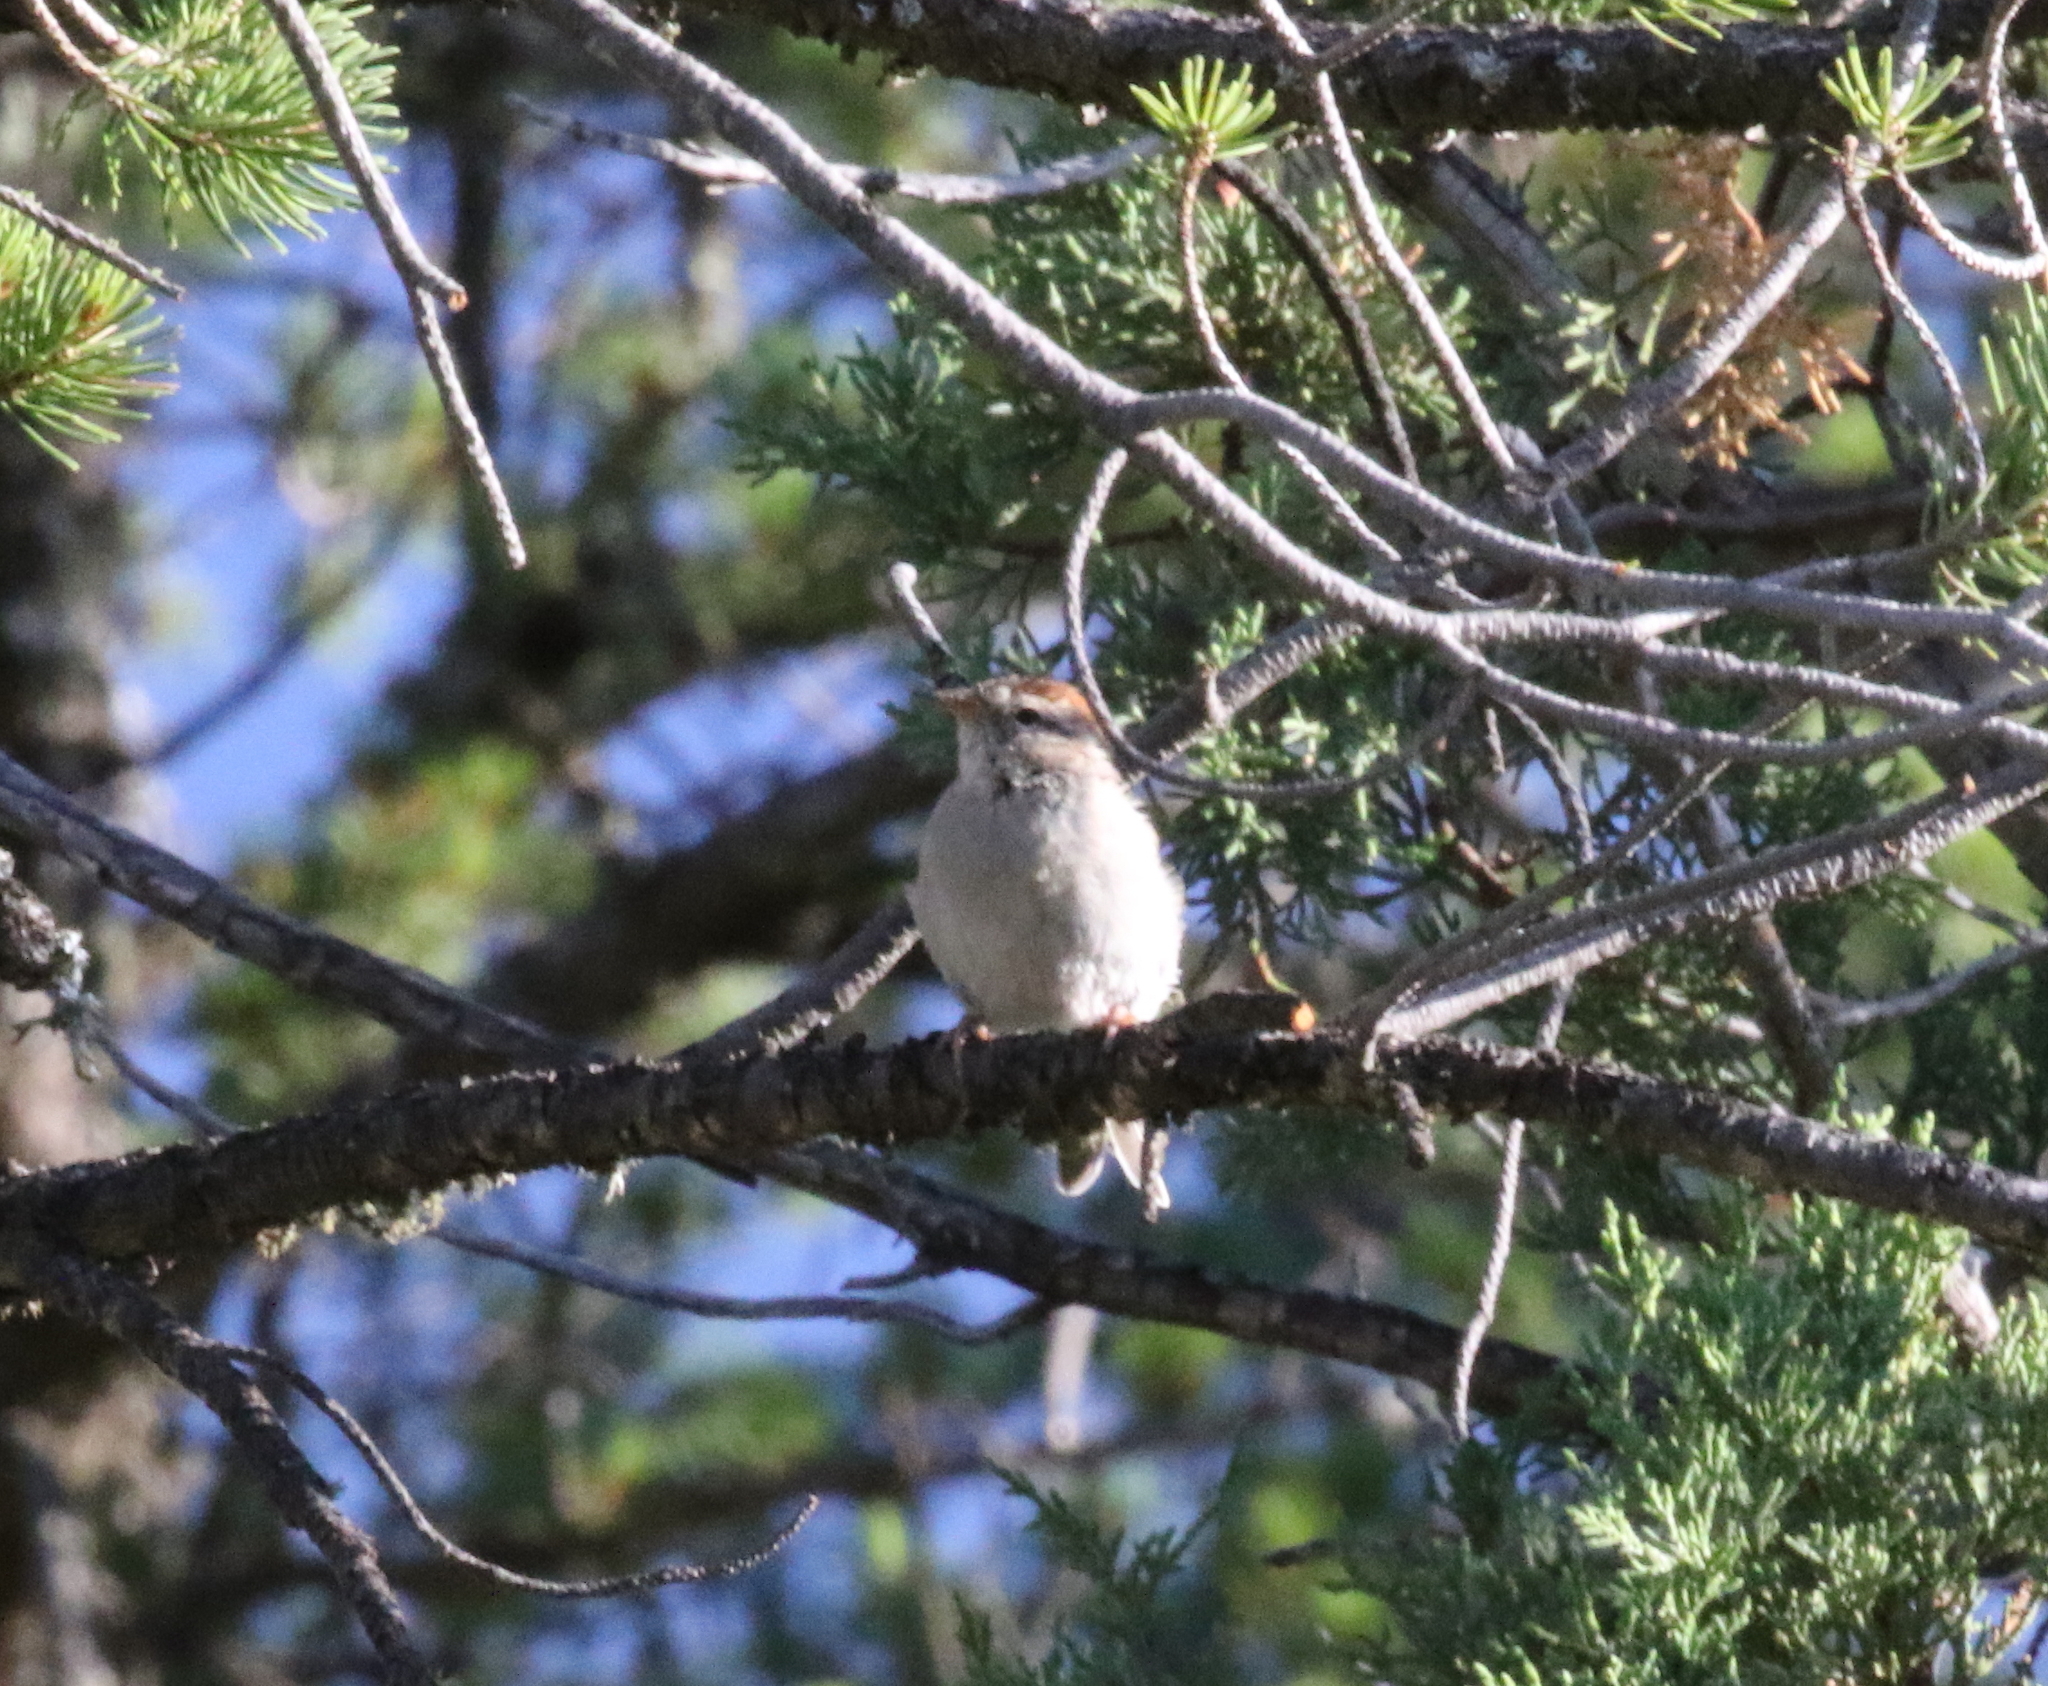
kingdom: Animalia
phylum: Chordata
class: Aves
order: Passeriformes
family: Passerellidae
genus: Spizella
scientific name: Spizella passerina
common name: Chipping sparrow
